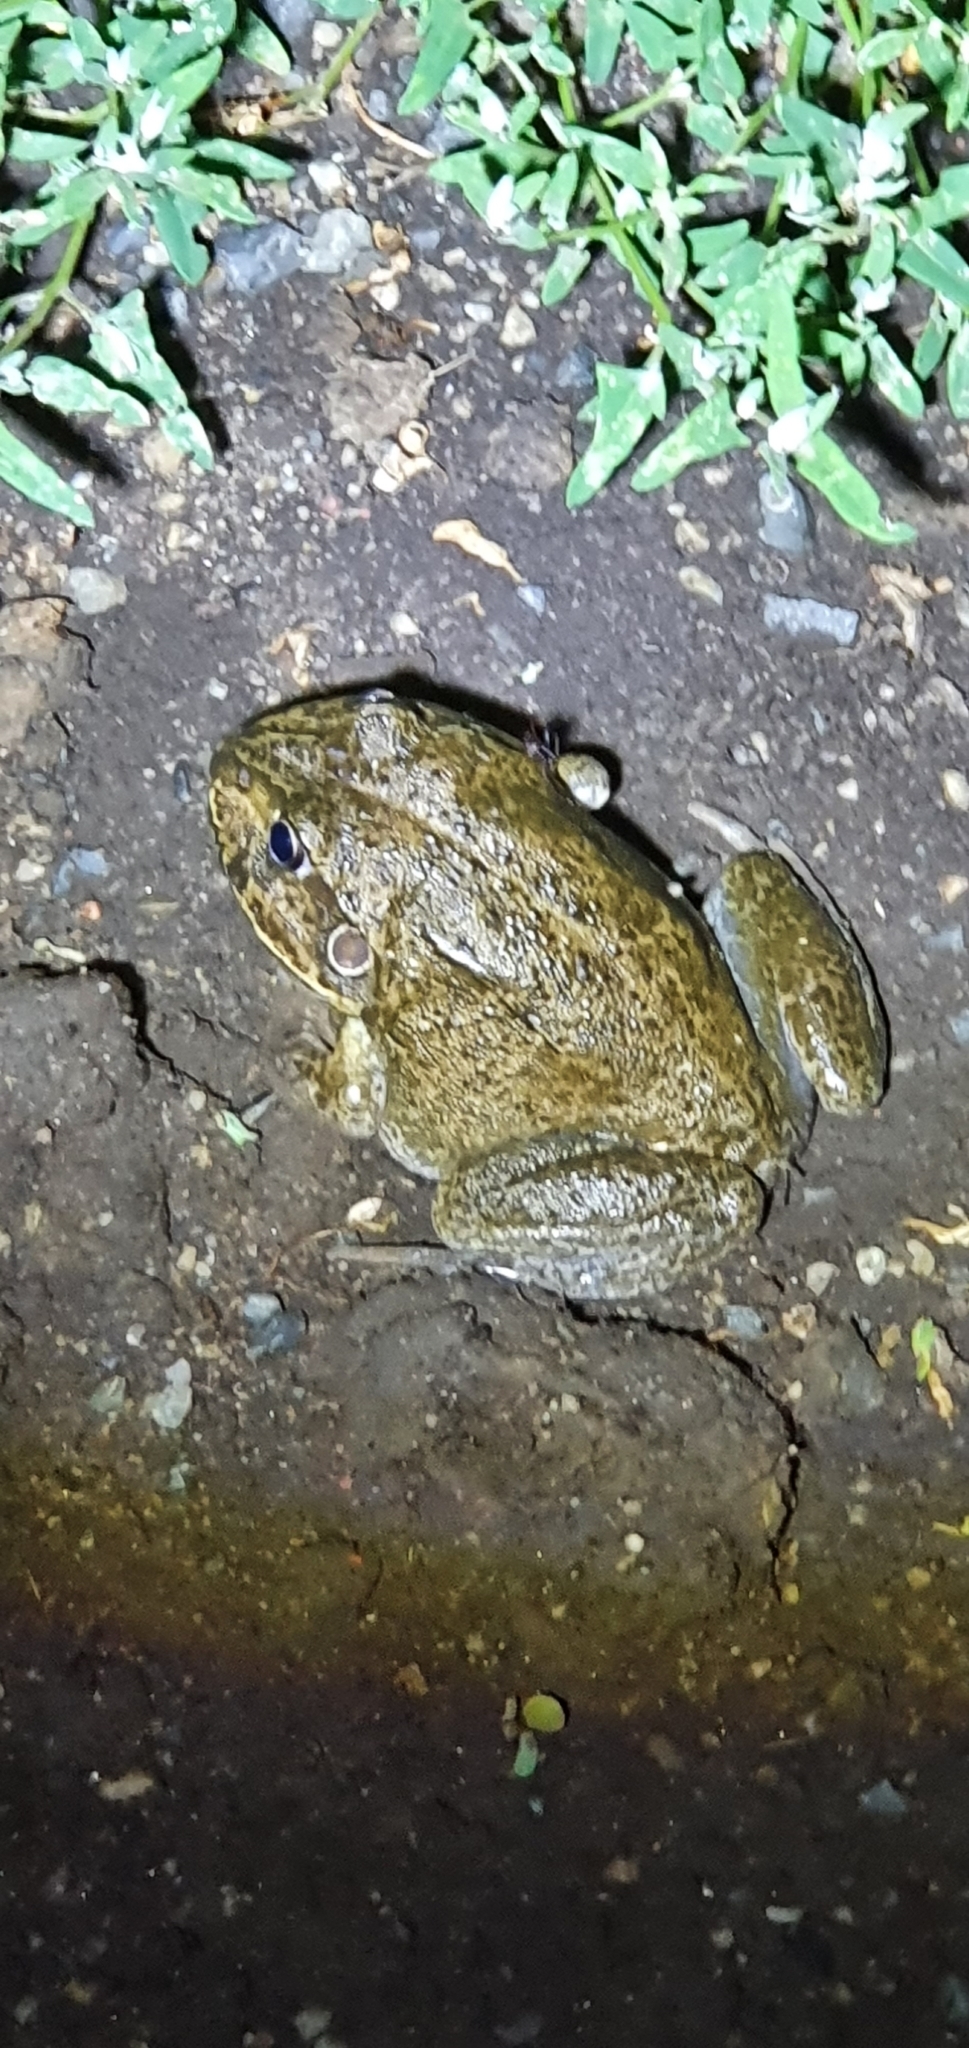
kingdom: Animalia
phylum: Chordata
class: Amphibia
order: Anura
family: Pelodryadidae
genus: Ranoidea
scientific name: Ranoidea novaehollandiae
